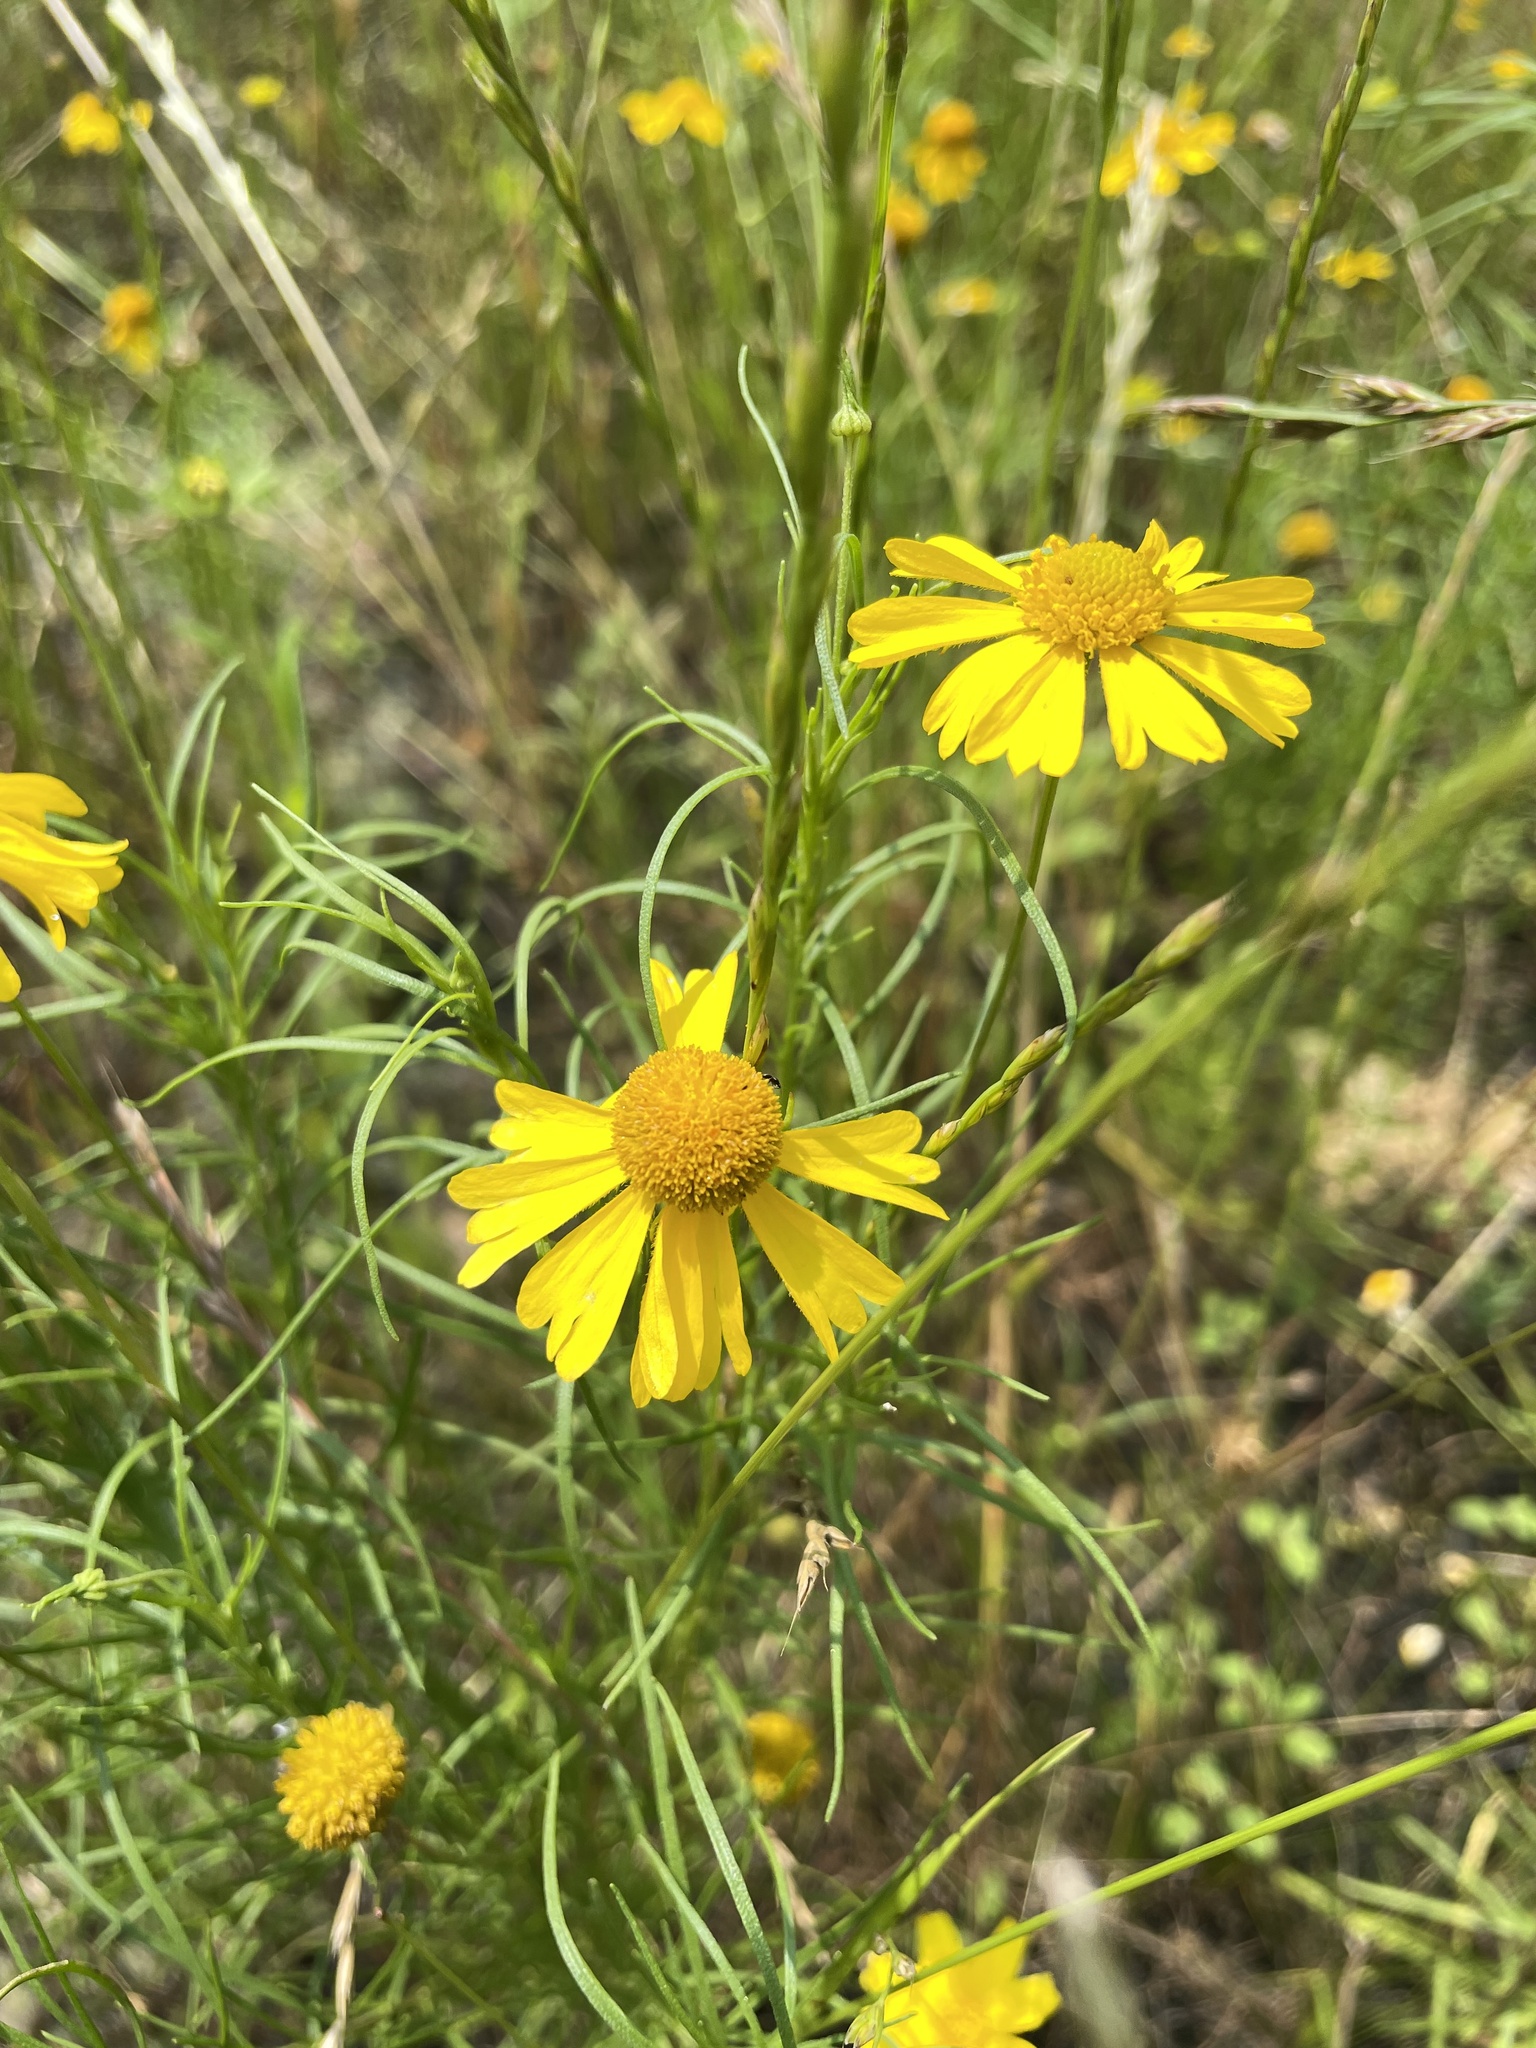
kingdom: Plantae
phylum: Tracheophyta
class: Magnoliopsida
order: Asterales
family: Asteraceae
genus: Helenium
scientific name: Helenium amarum
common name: Bitter sneezeweed
